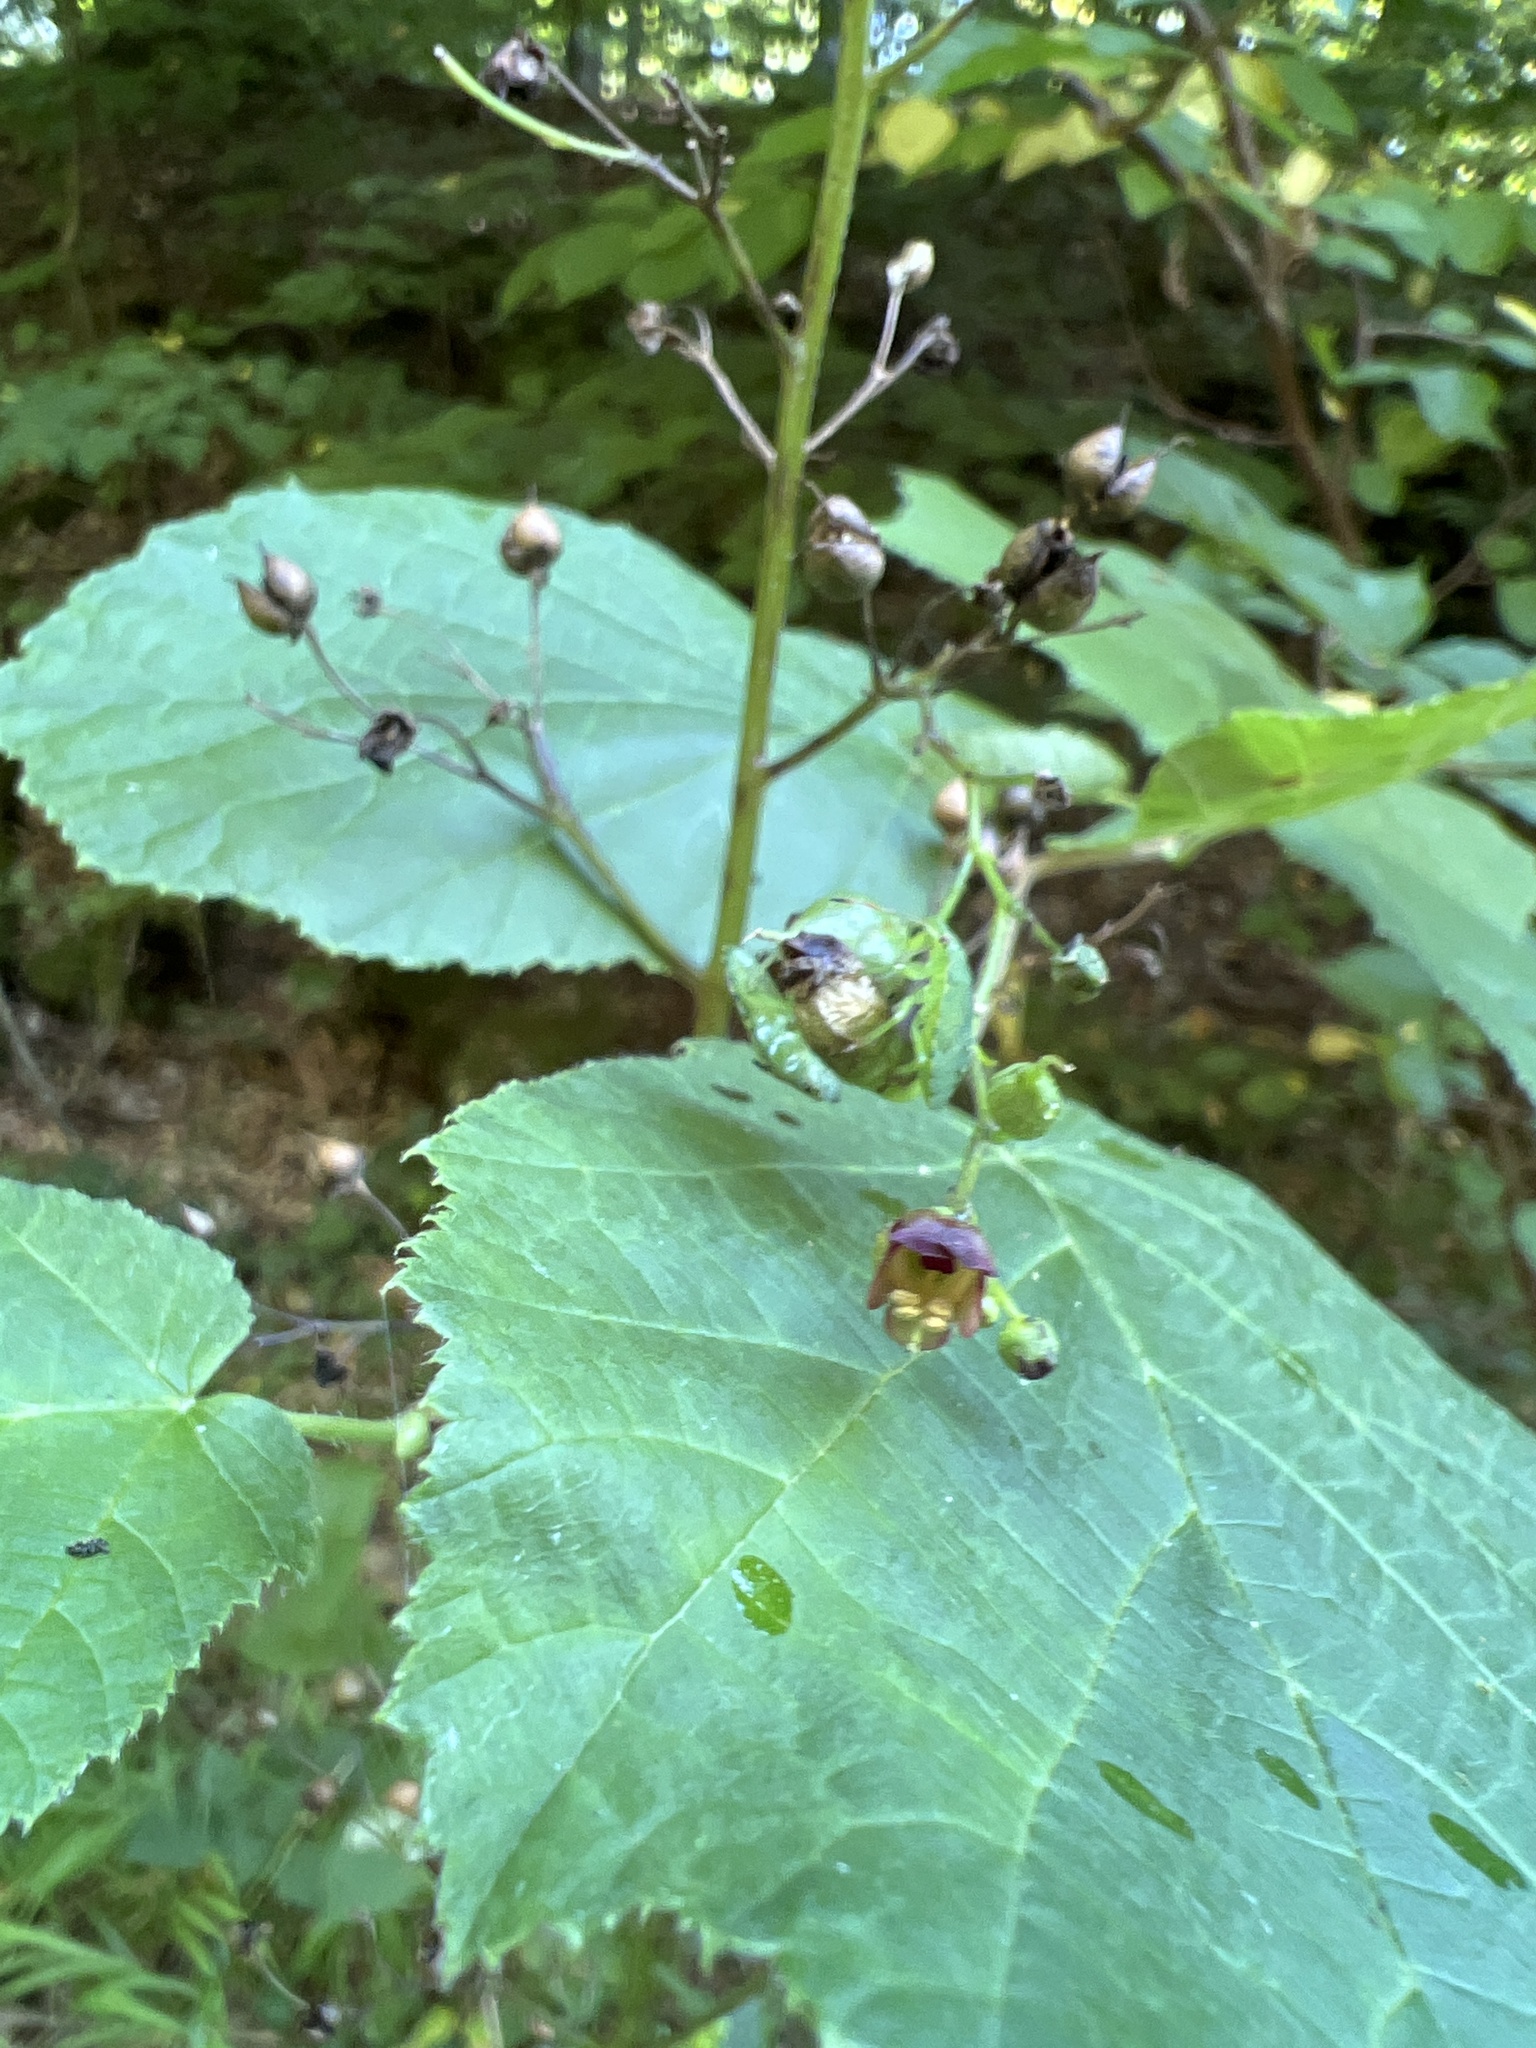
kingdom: Plantae
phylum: Tracheophyta
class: Magnoliopsida
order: Lamiales
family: Scrophulariaceae
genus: Scrophularia
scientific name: Scrophularia nodosa
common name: Common figwort
